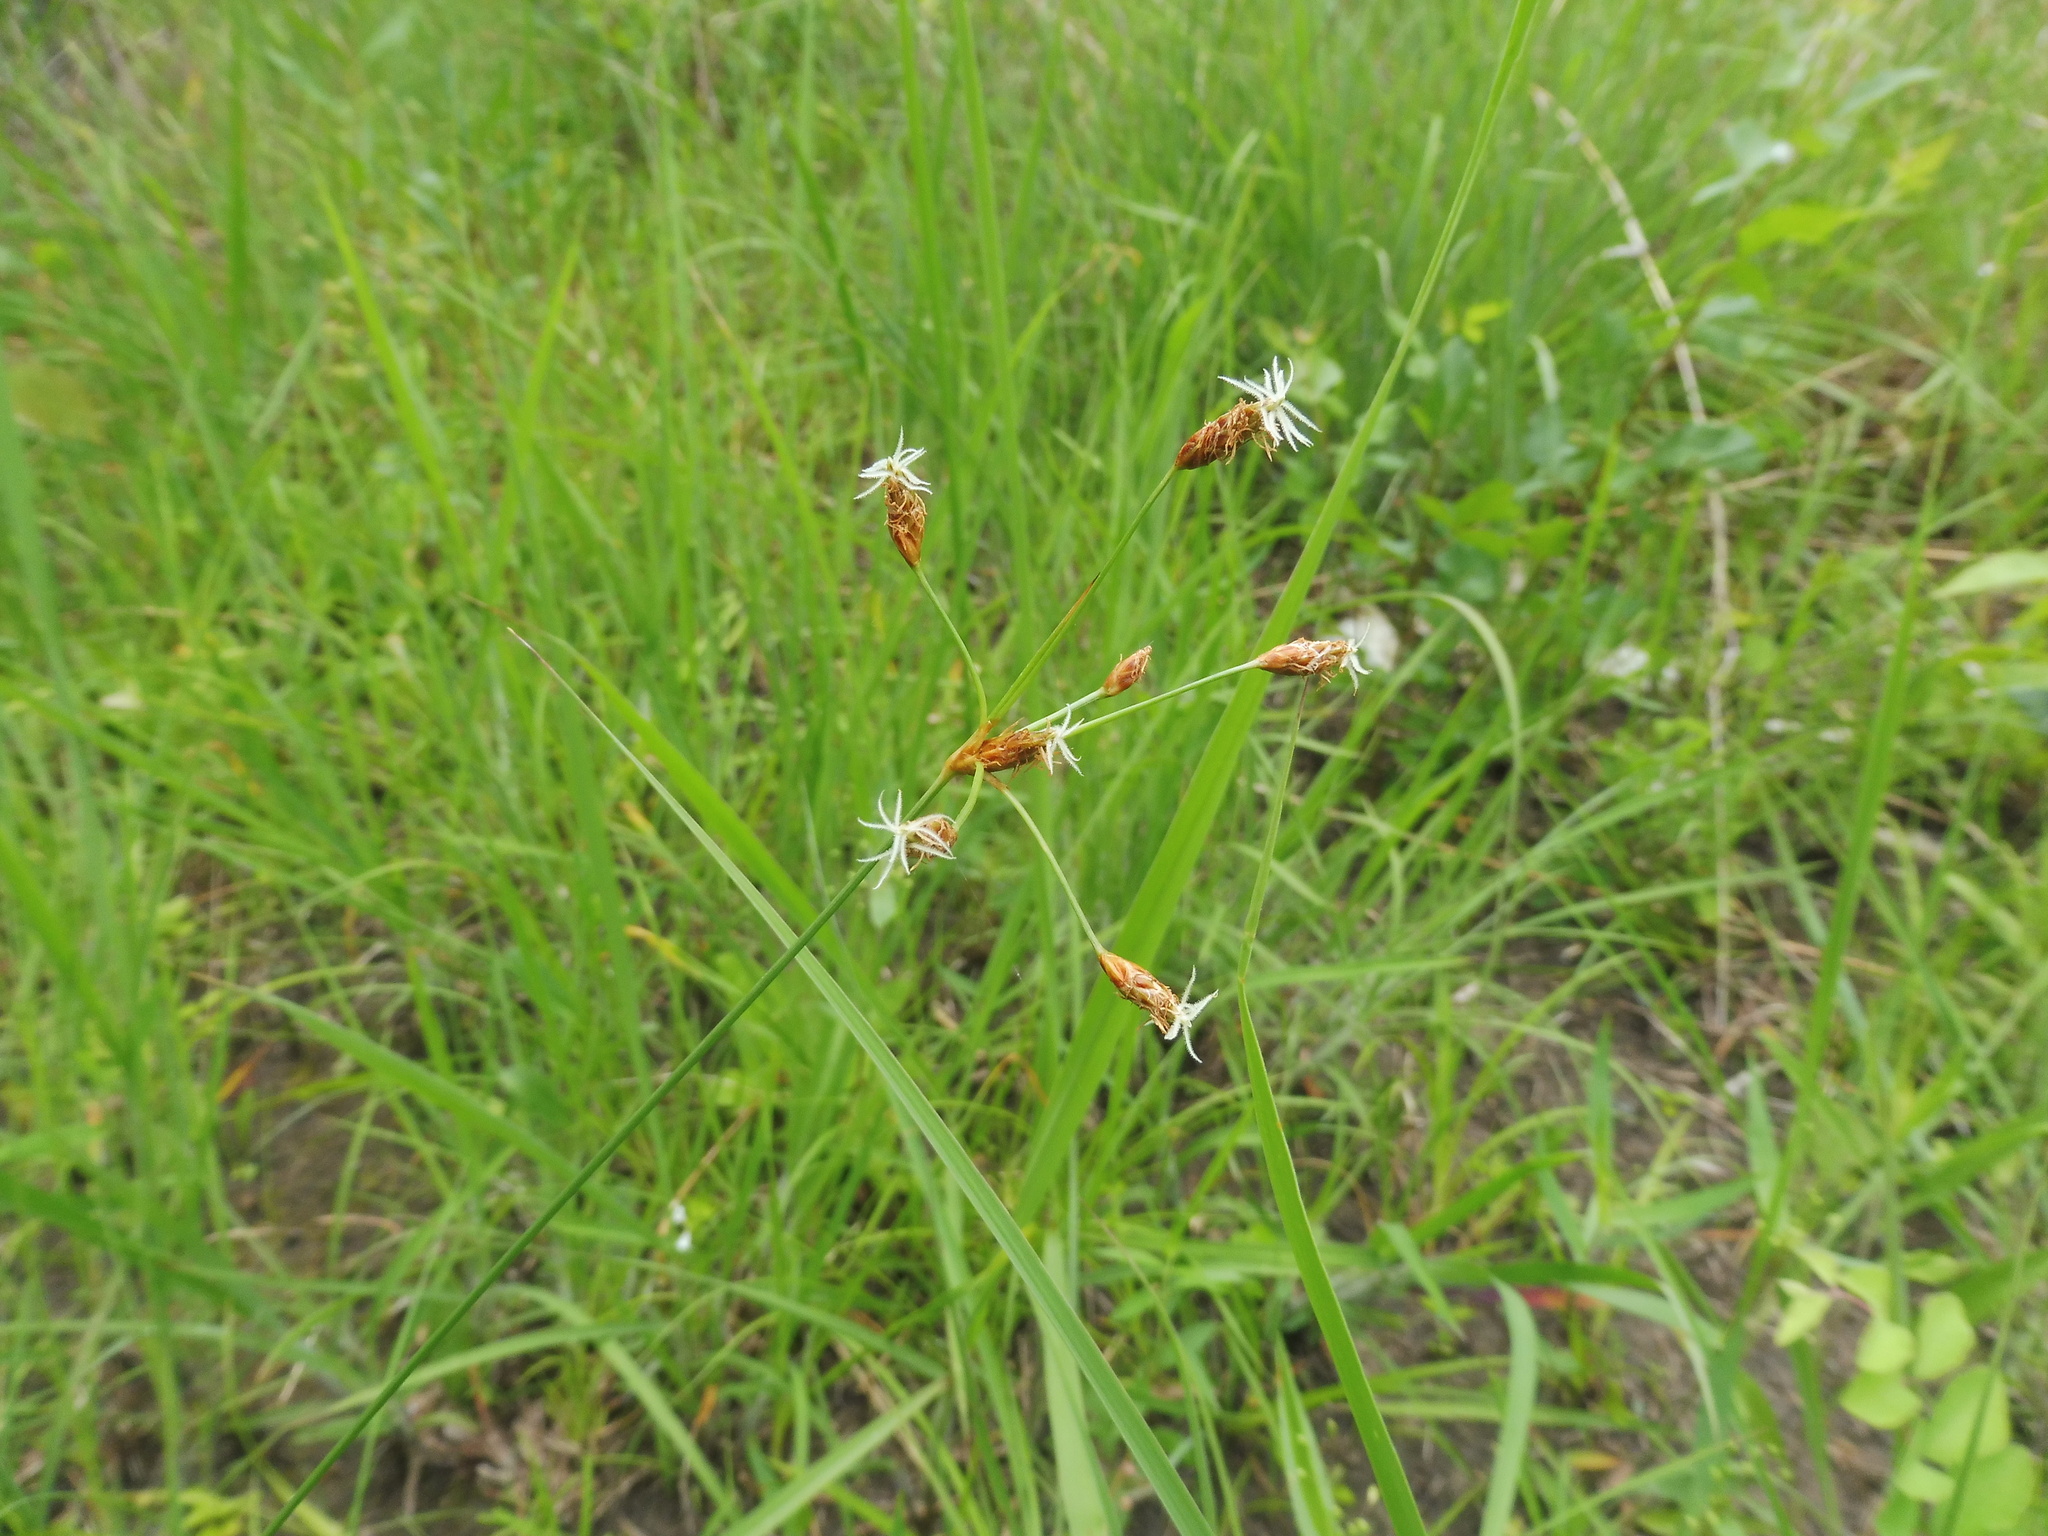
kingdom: Plantae
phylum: Tracheophyta
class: Liliopsida
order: Poales
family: Cyperaceae
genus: Fimbristylis
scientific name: Fimbristylis puberula
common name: Hairy fimbristylis
